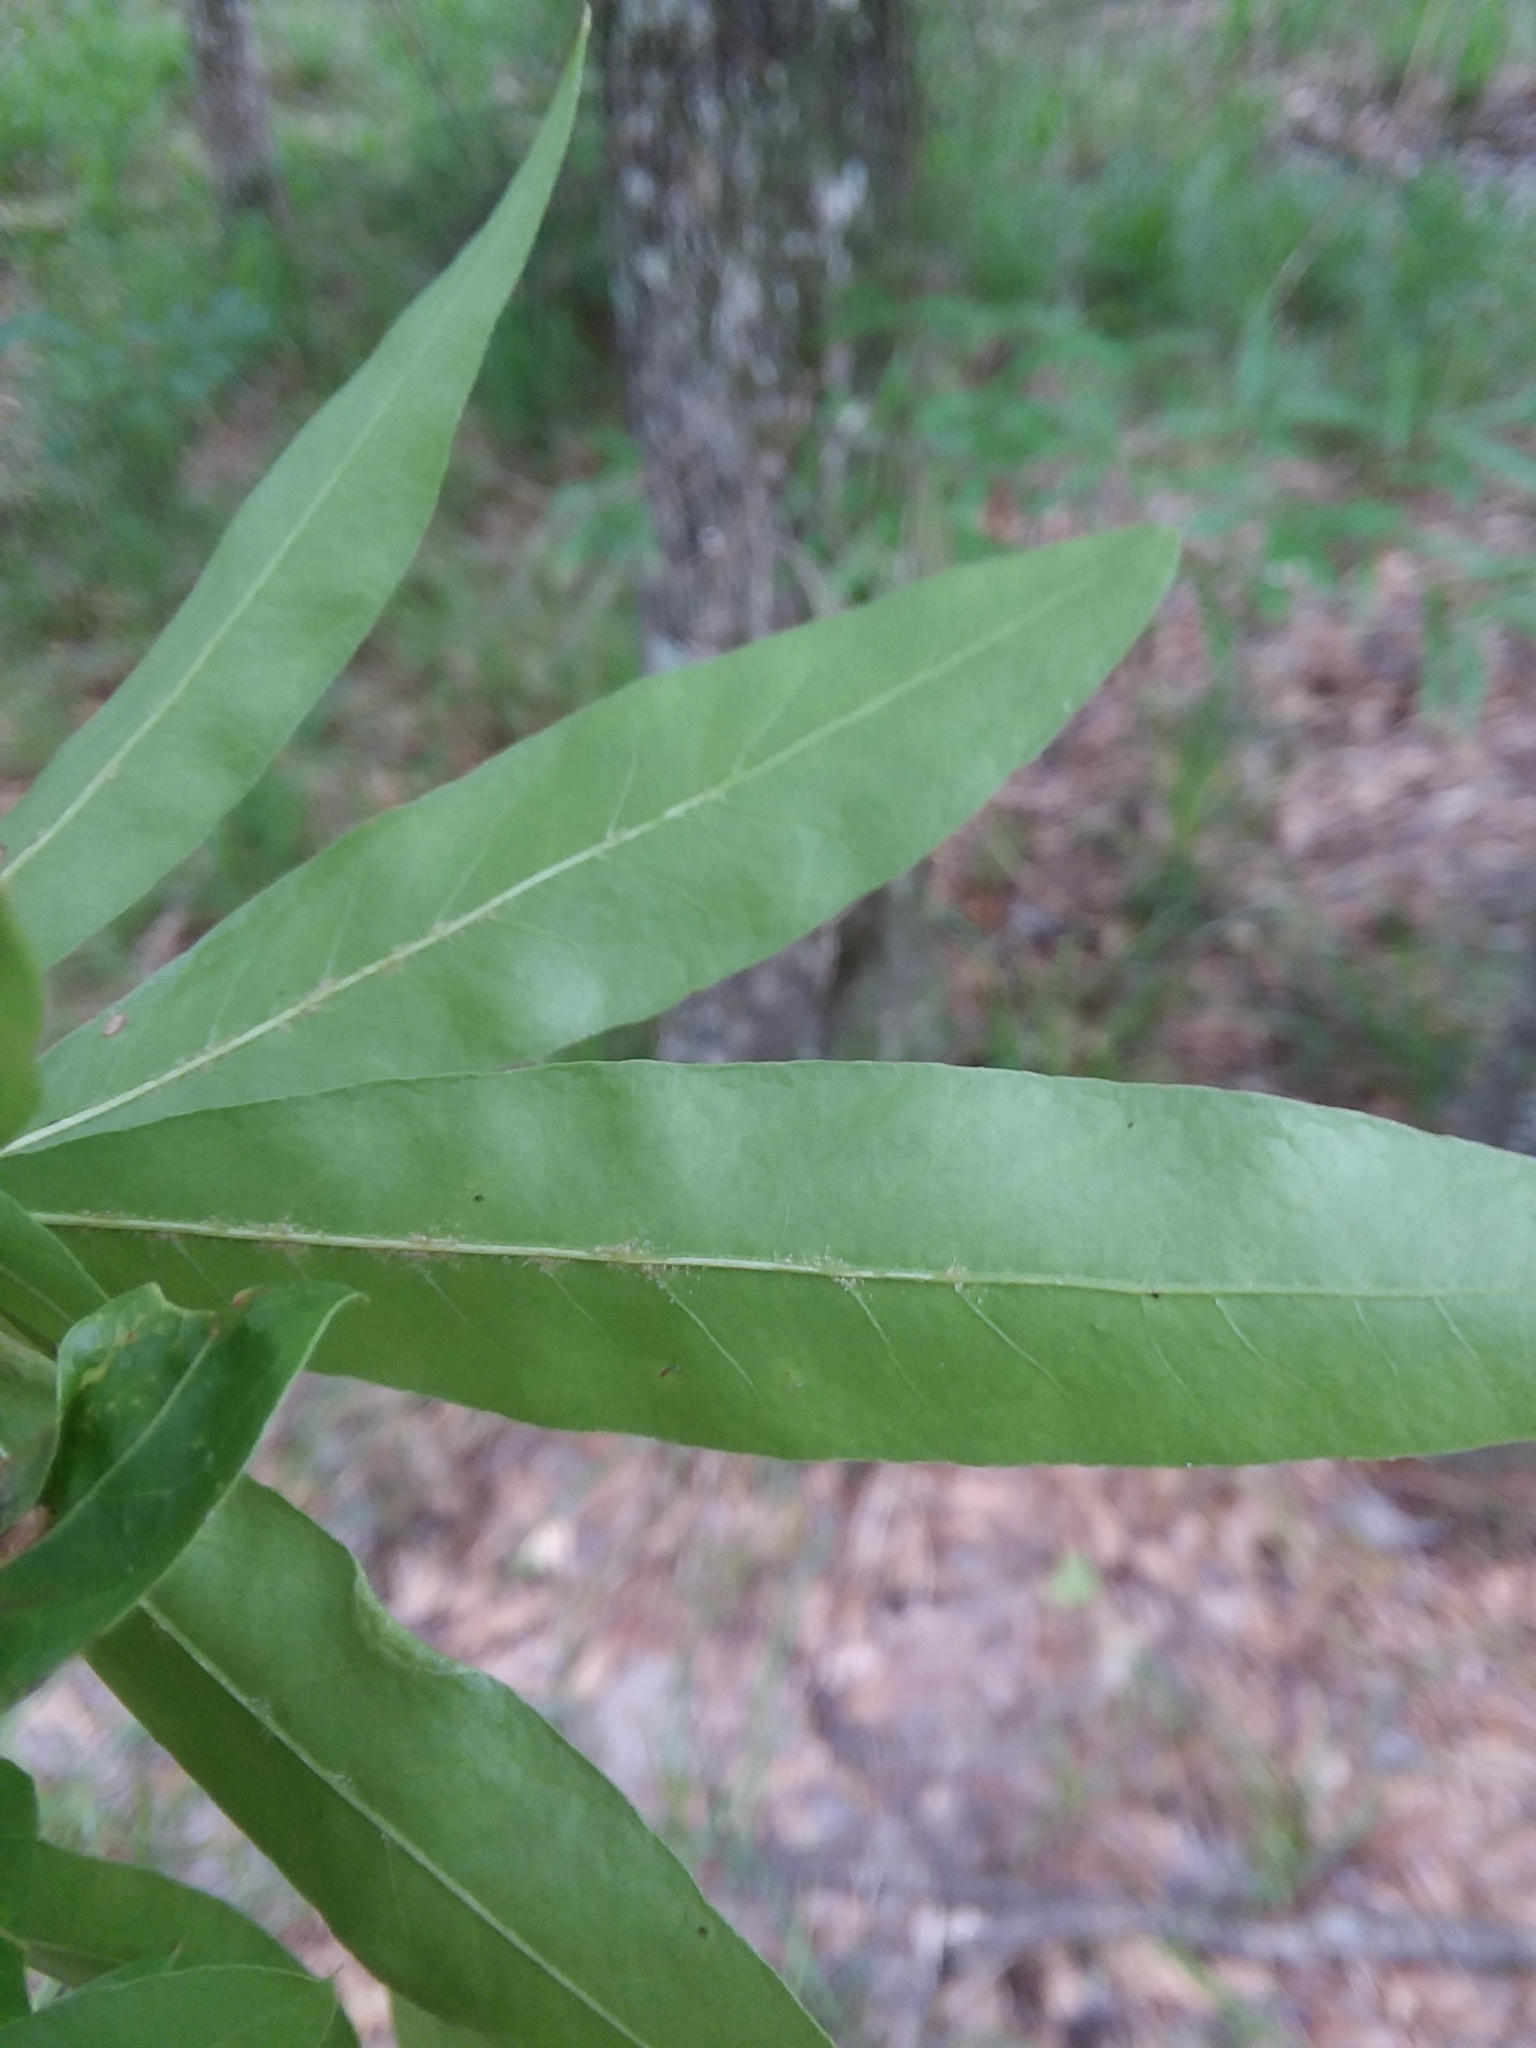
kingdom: Plantae
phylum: Tracheophyta
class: Magnoliopsida
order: Fagales
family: Fagaceae
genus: Quercus
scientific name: Quercus phellos
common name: Willow oak
